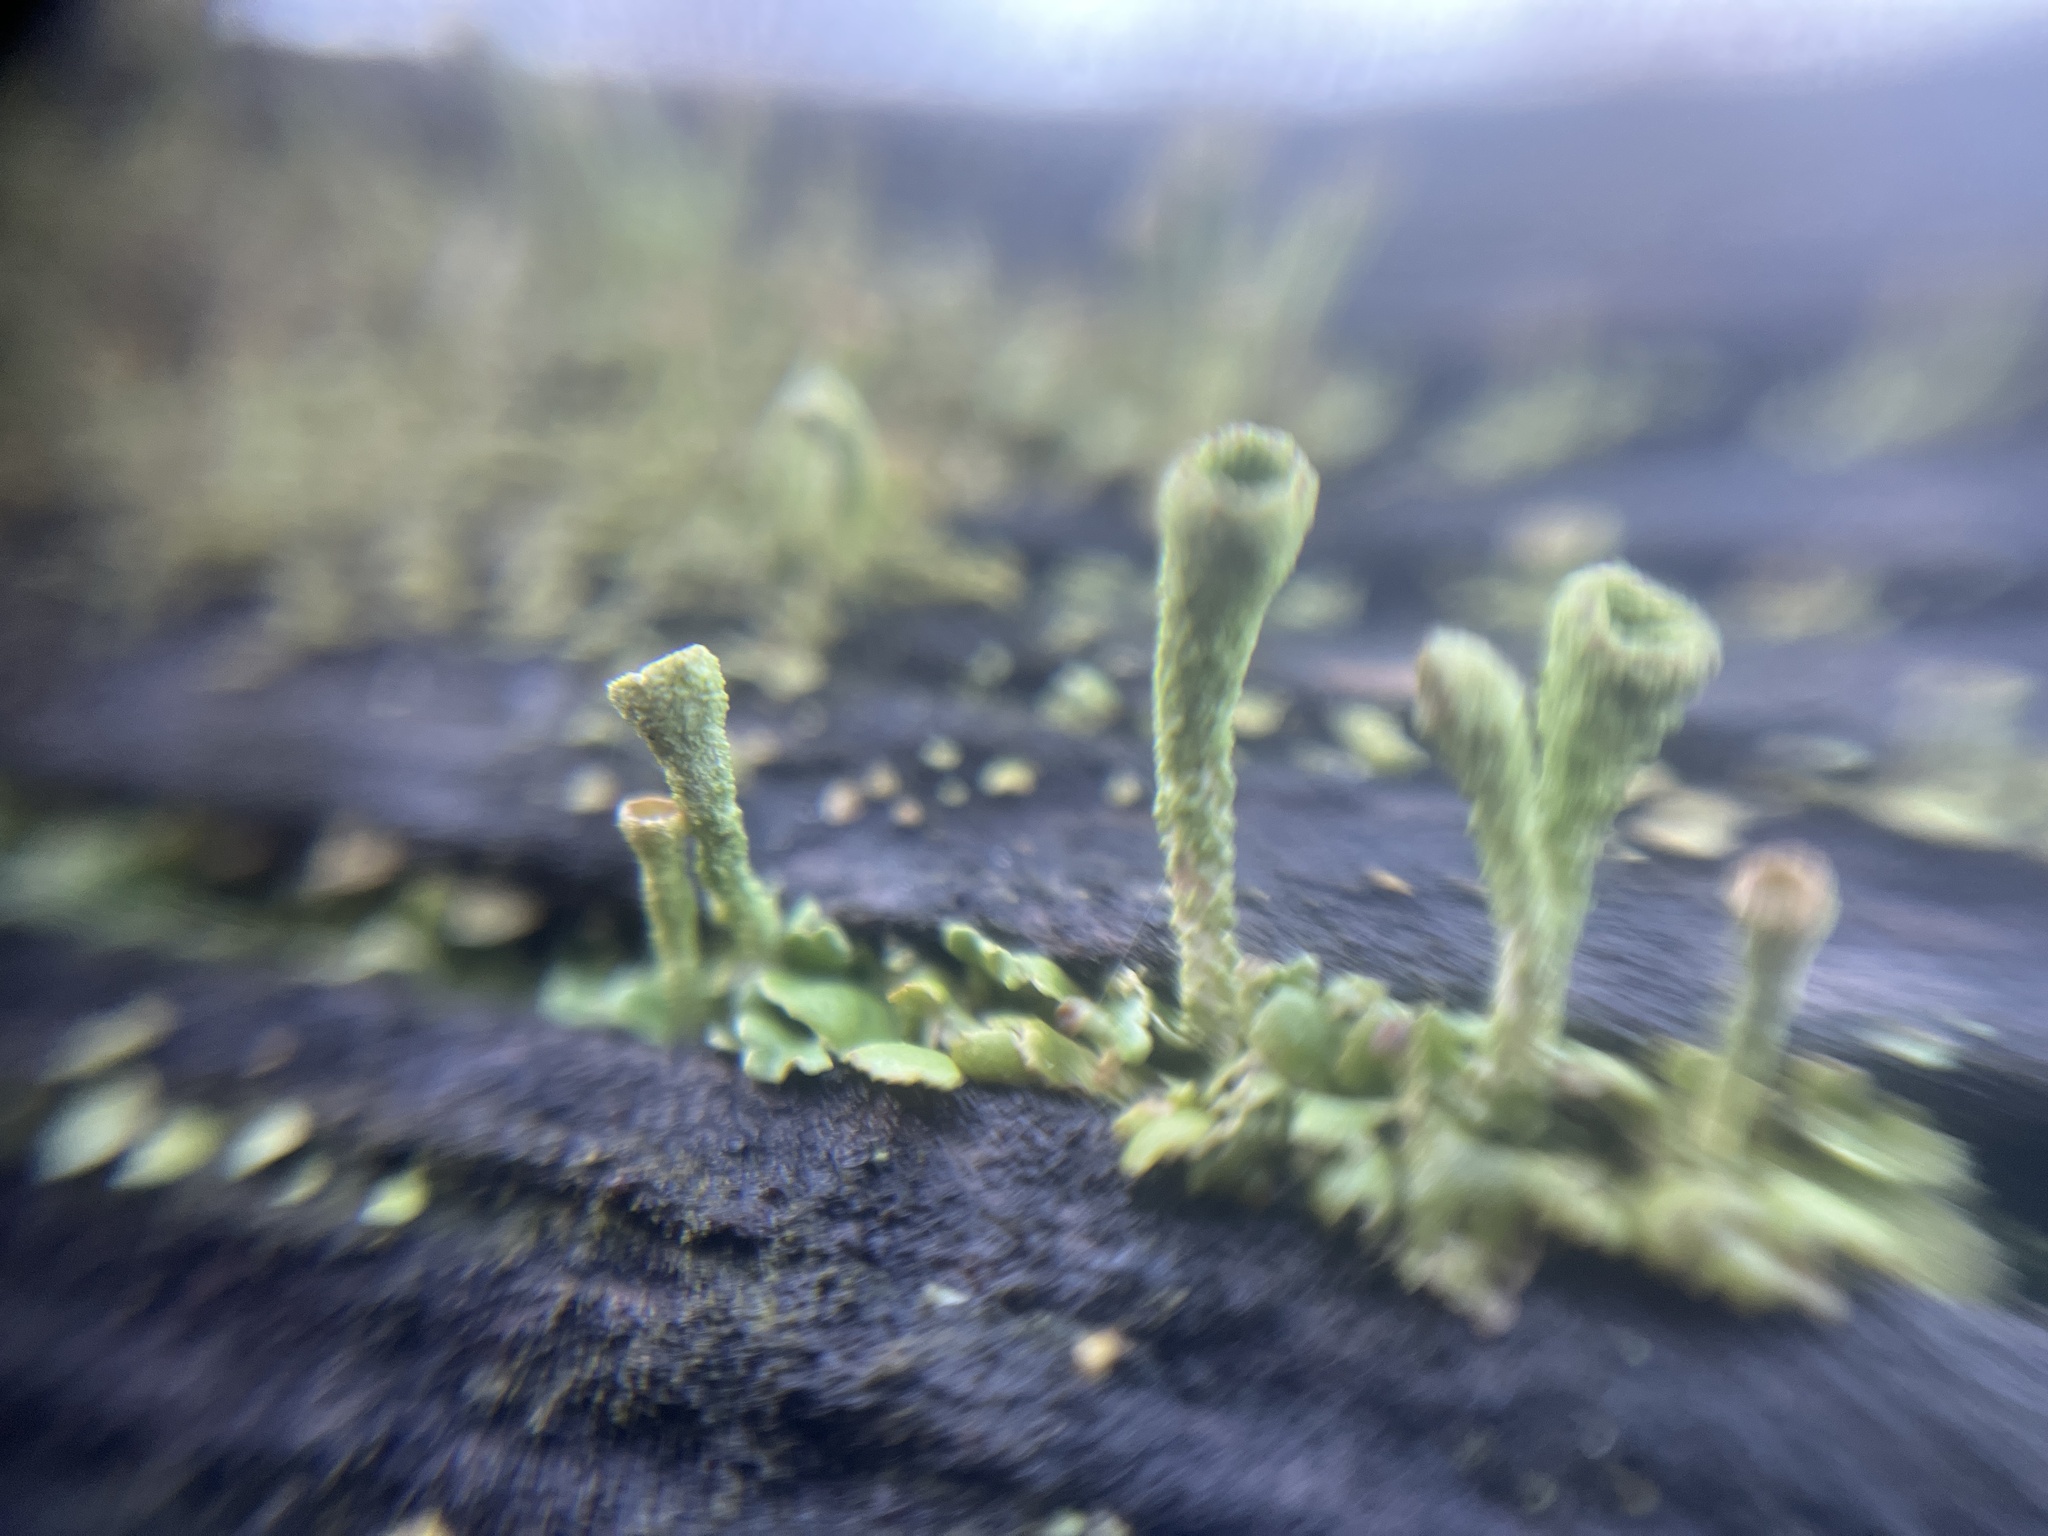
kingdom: Fungi
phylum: Ascomycota
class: Lecanoromycetes
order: Lecanorales
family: Cladoniaceae
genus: Cladonia
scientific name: Cladonia fimbriata
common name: Powdered trumpet lichen
